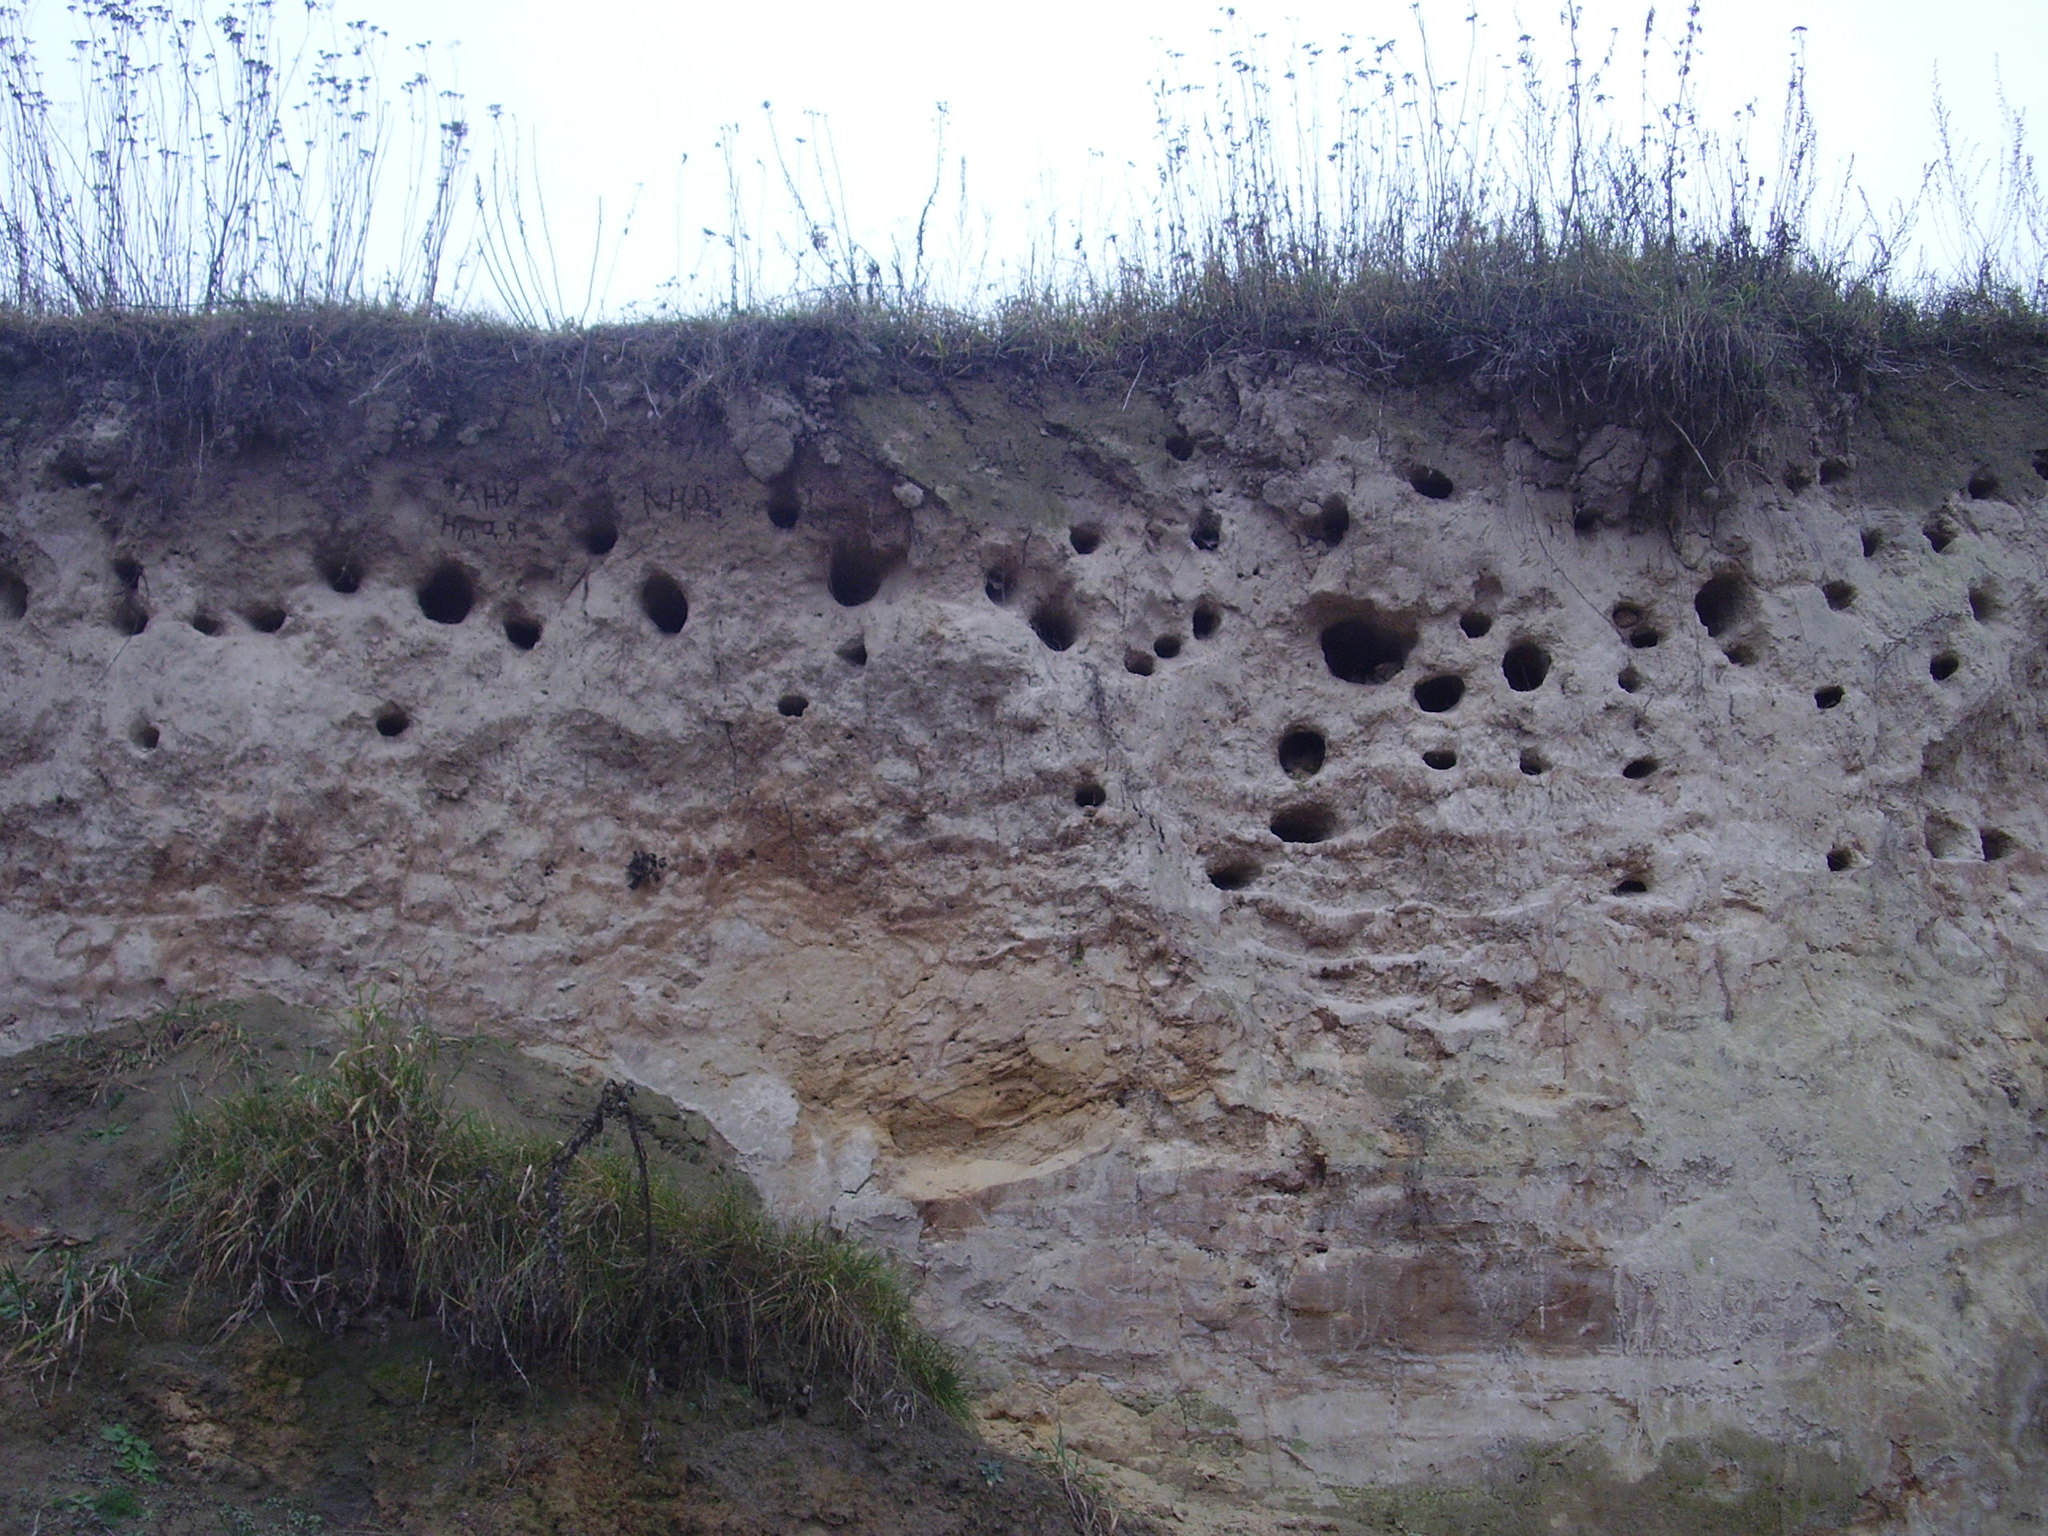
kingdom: Animalia
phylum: Chordata
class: Aves
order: Passeriformes
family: Hirundinidae
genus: Riparia
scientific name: Riparia riparia
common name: Sand martin
